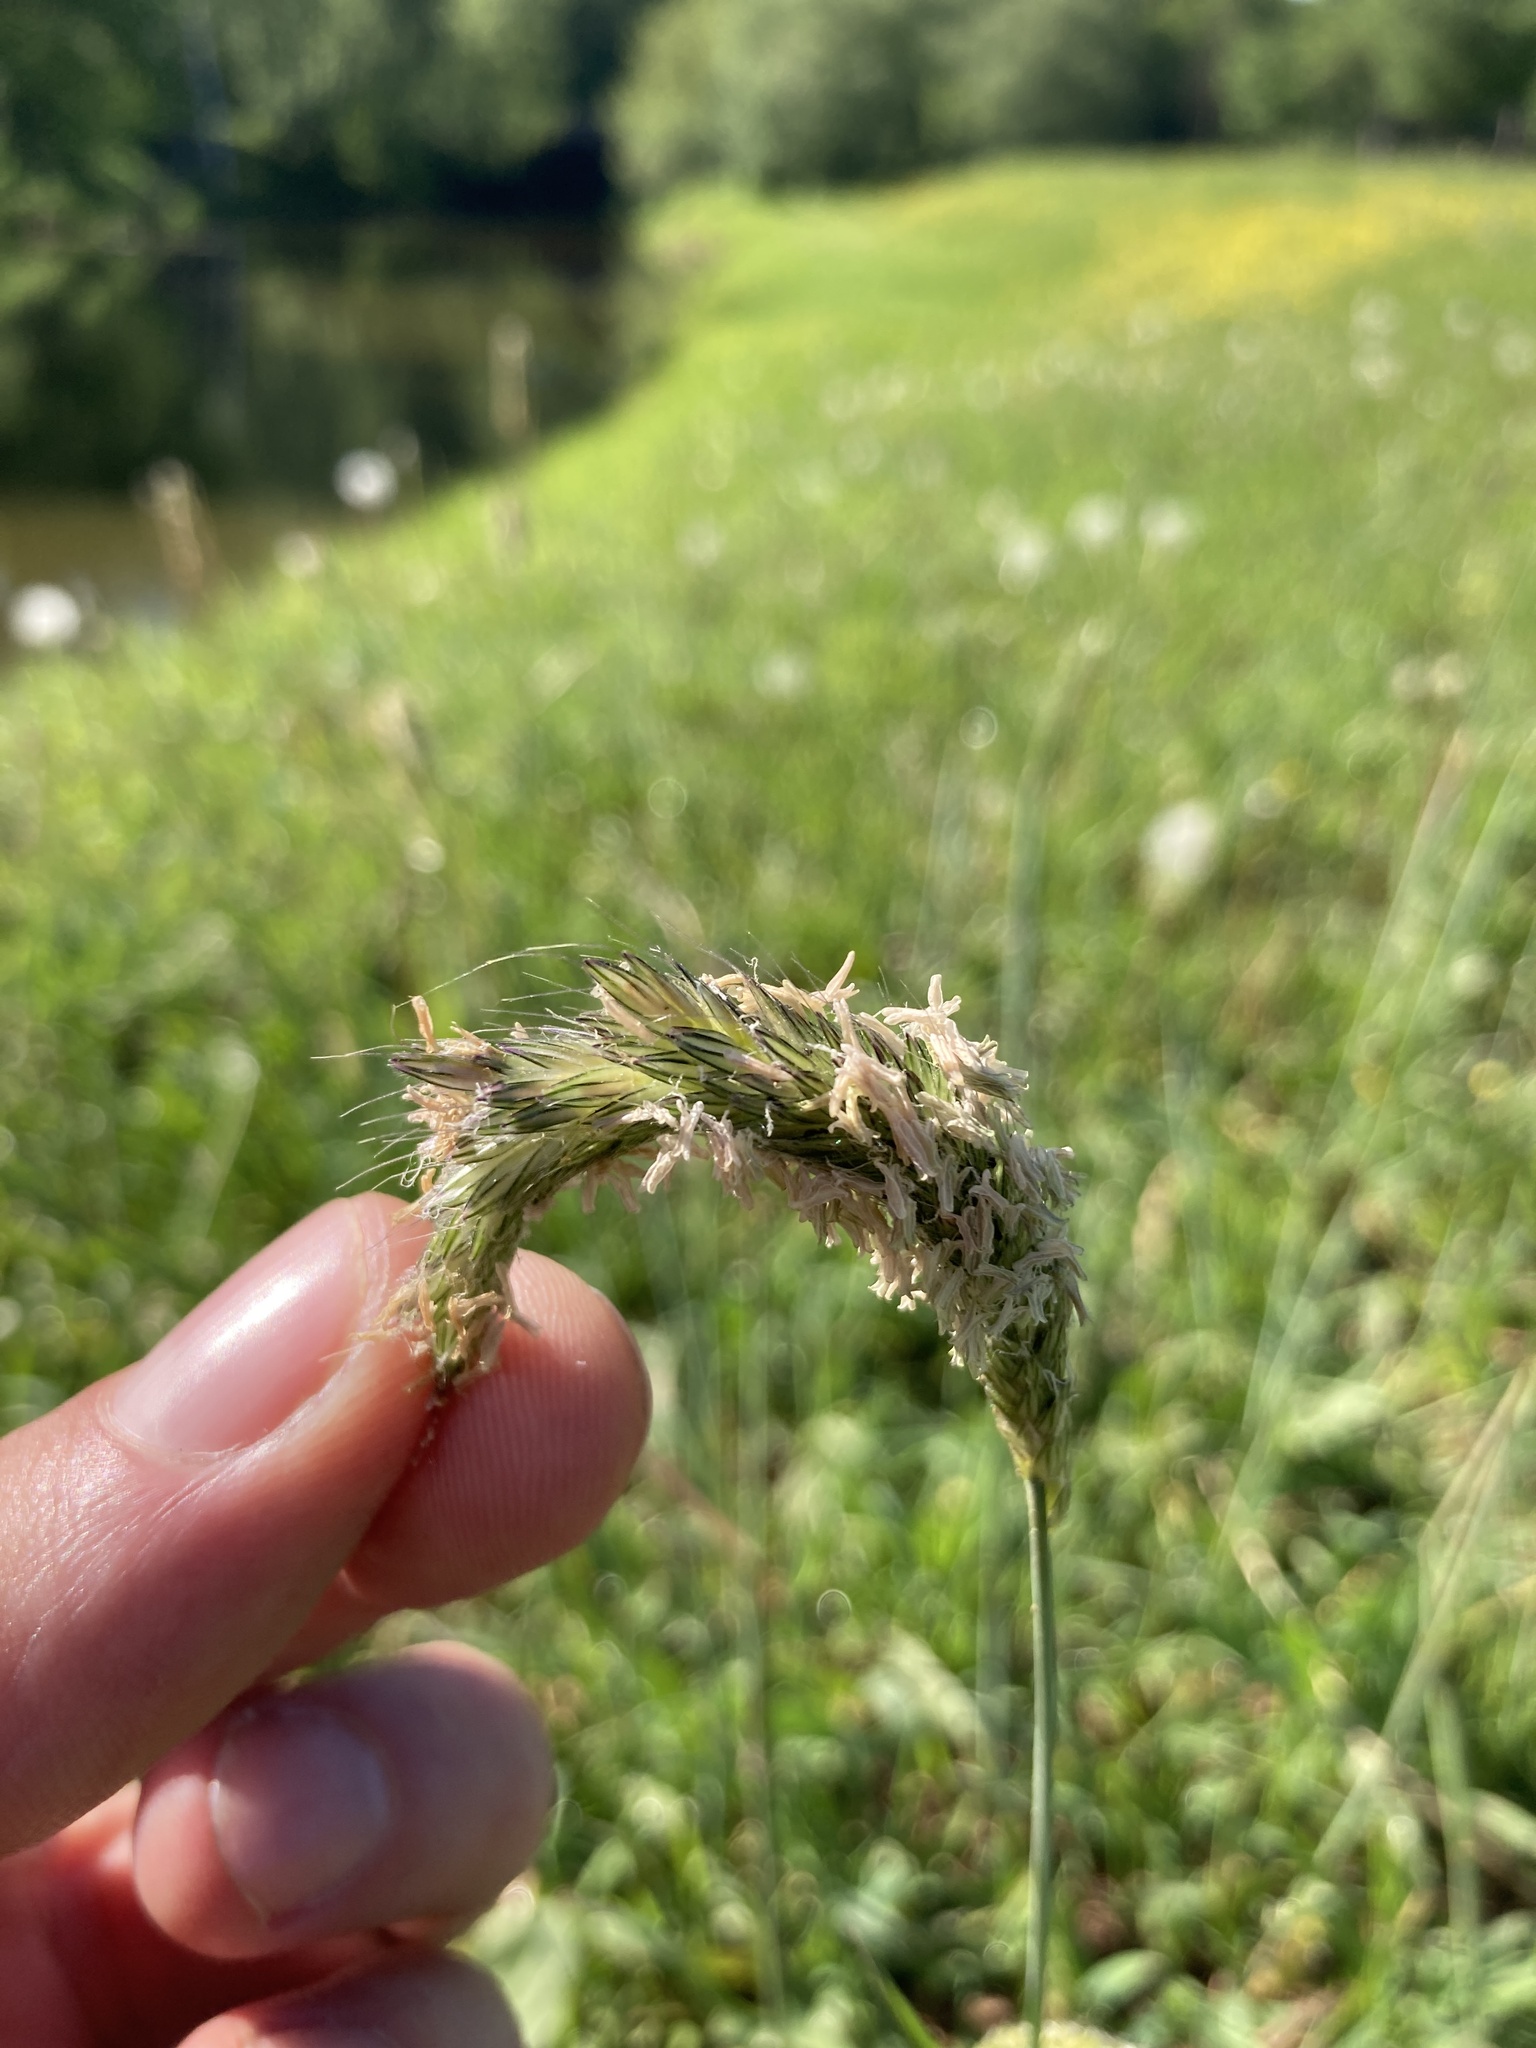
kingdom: Plantae
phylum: Tracheophyta
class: Liliopsida
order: Poales
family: Poaceae
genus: Alopecurus
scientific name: Alopecurus pratensis
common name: Meadow foxtail
